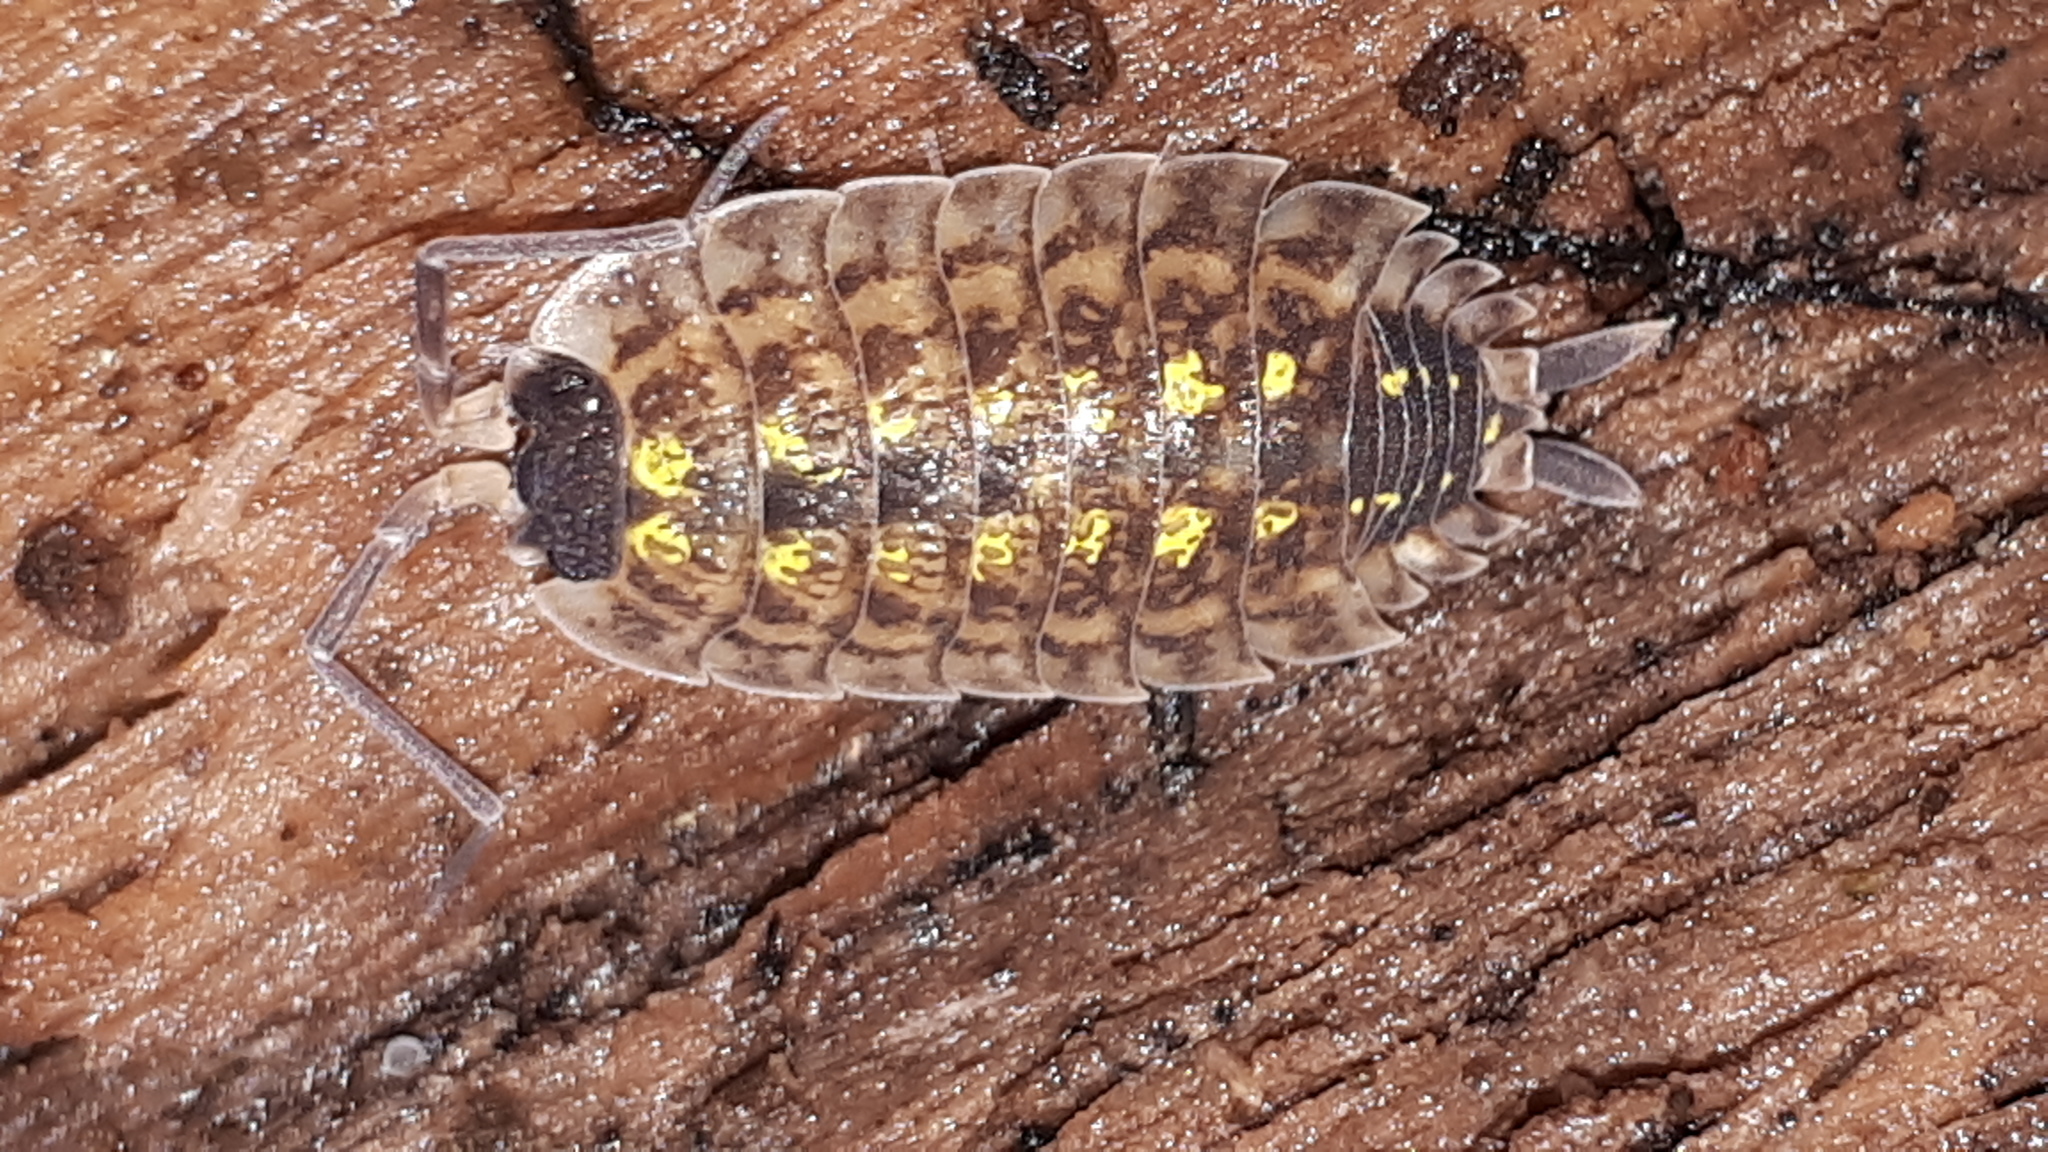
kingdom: Animalia
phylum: Arthropoda
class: Malacostraca
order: Isopoda
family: Porcellionidae
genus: Porcellio
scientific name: Porcellio spinicornis
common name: Painted woodlouse
